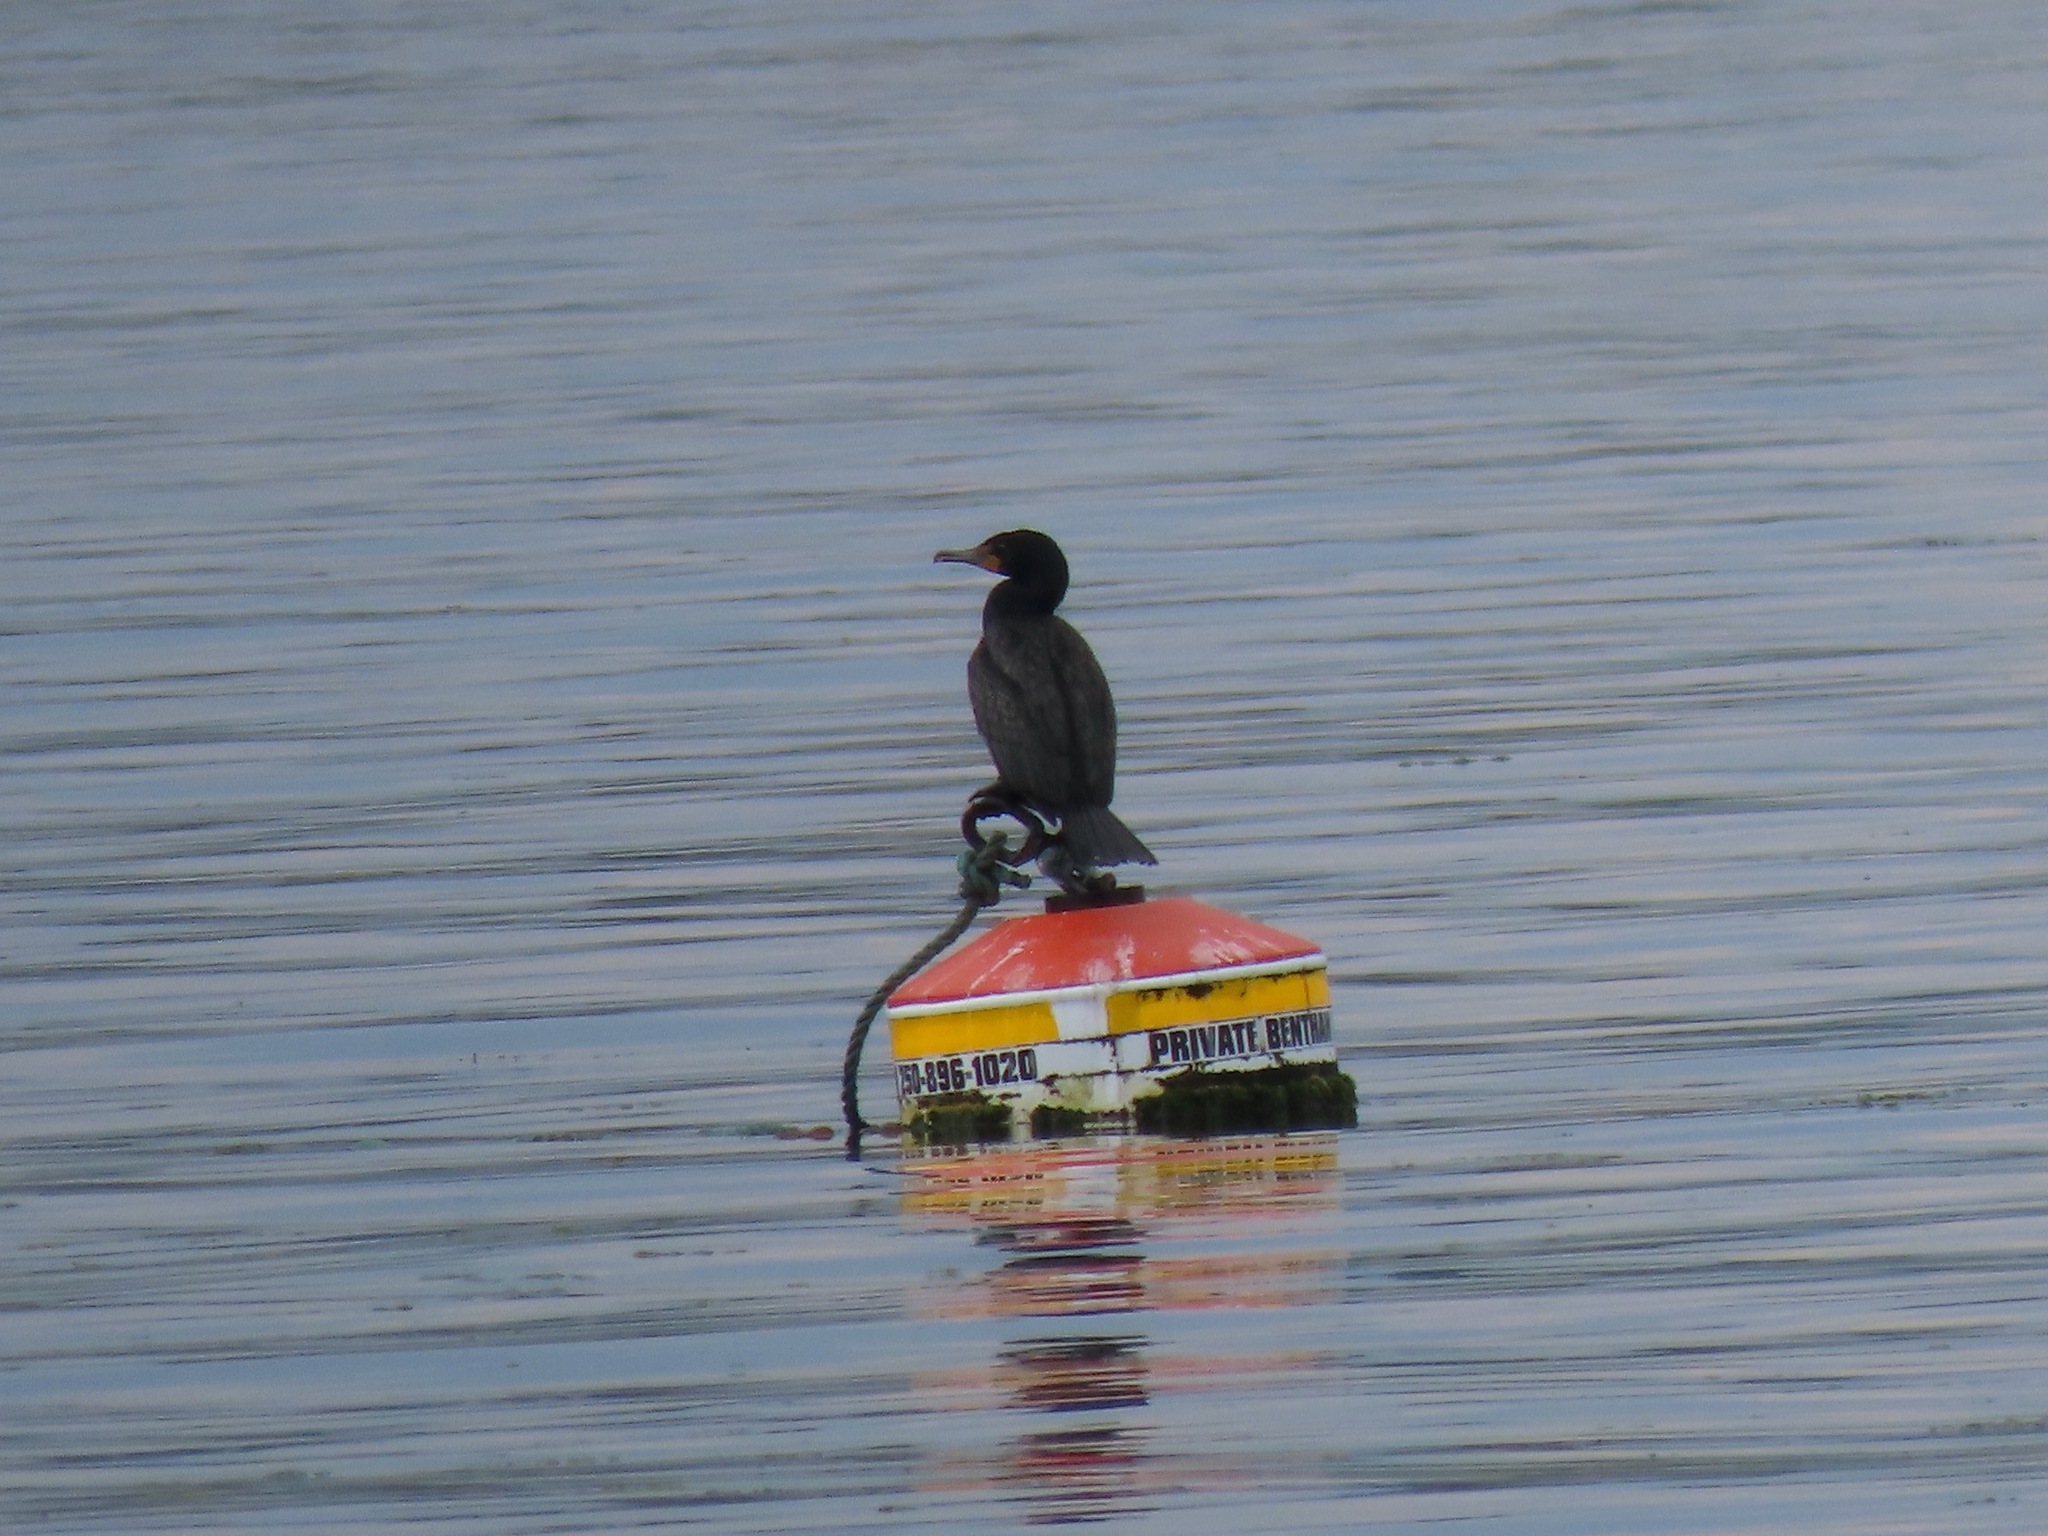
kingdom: Animalia
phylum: Chordata
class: Aves
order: Suliformes
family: Phalacrocoracidae
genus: Phalacrocorax
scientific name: Phalacrocorax auritus
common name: Double-crested cormorant
